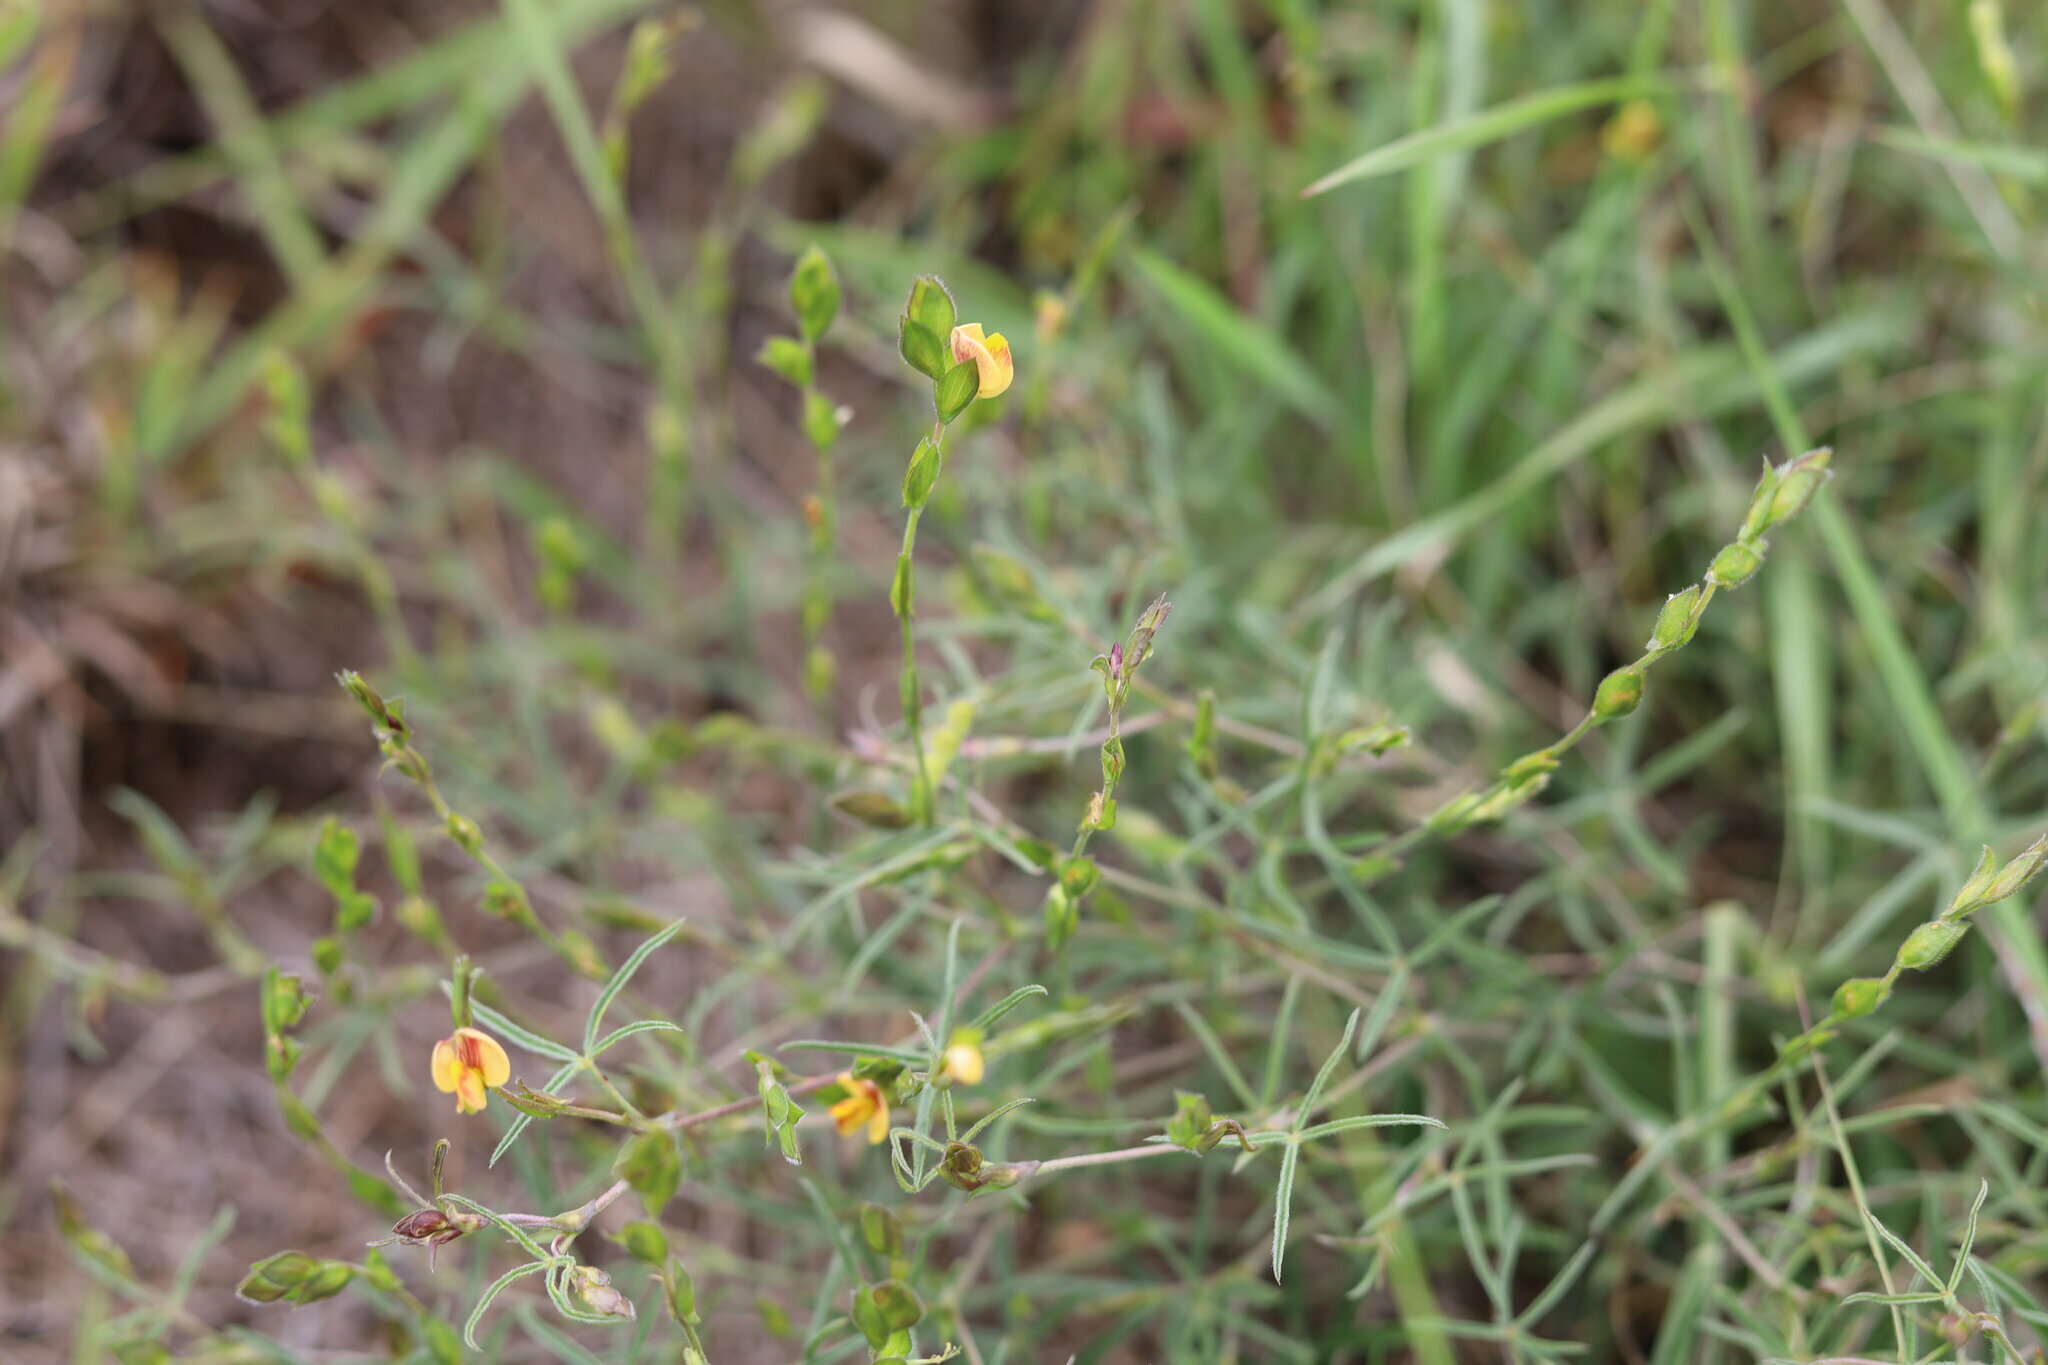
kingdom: Plantae
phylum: Tracheophyta
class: Magnoliopsida
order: Fabales
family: Fabaceae
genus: Zornia
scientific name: Zornia linearis
